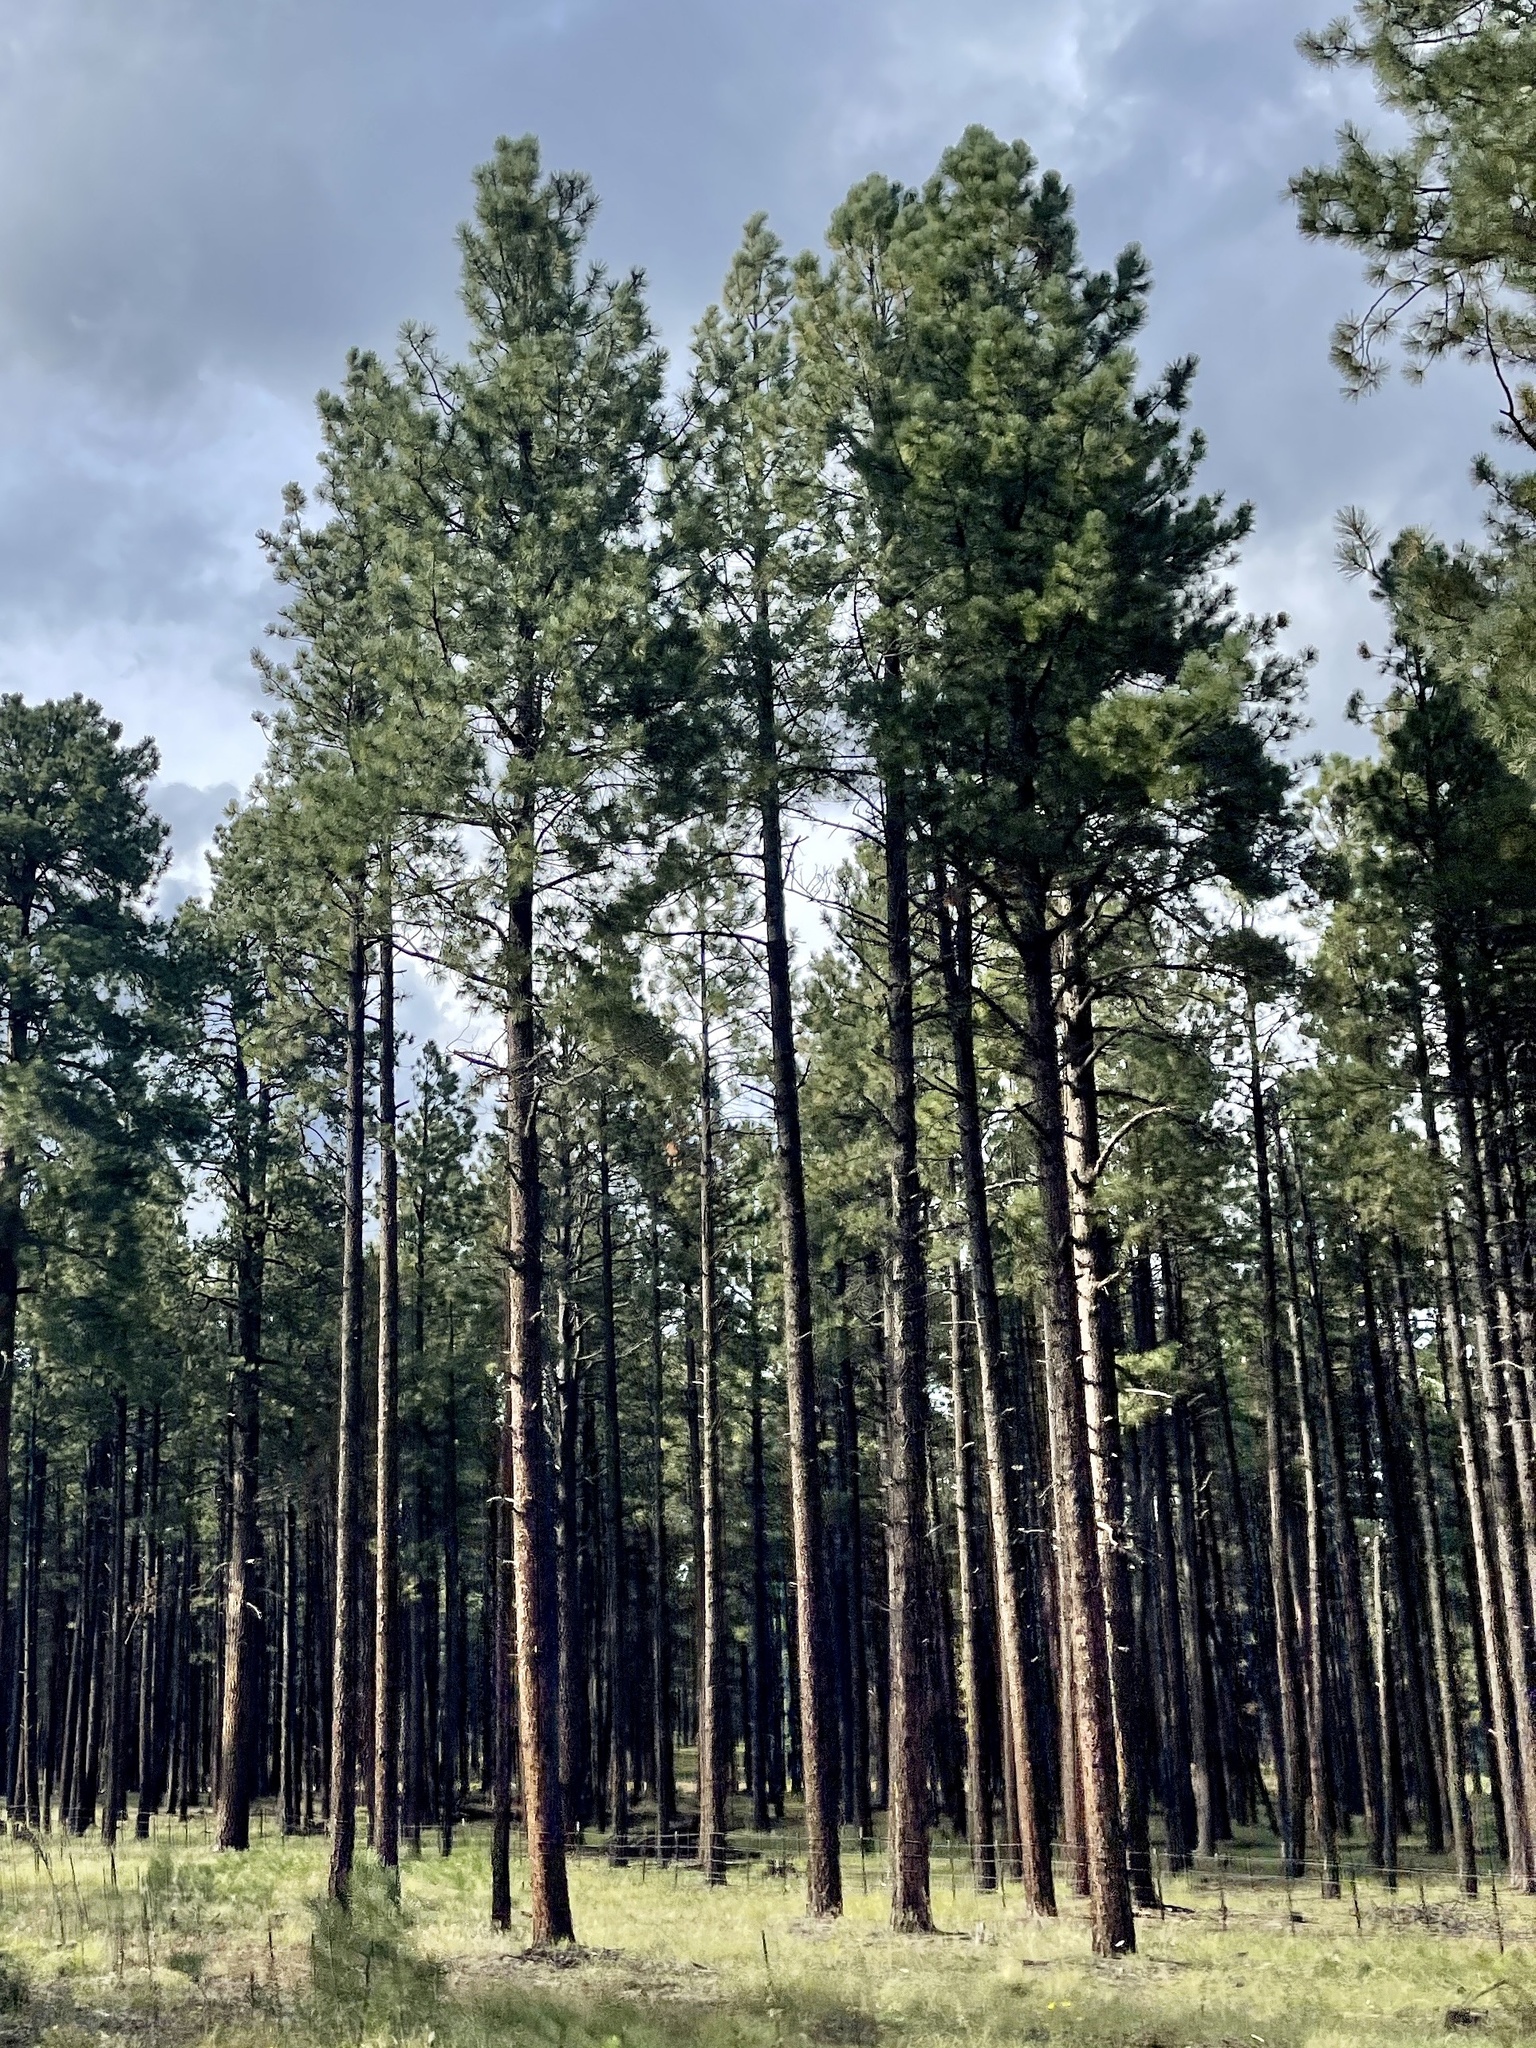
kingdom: Plantae
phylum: Tracheophyta
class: Pinopsida
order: Pinales
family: Pinaceae
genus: Pinus
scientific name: Pinus ponderosa
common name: Western yellow-pine
